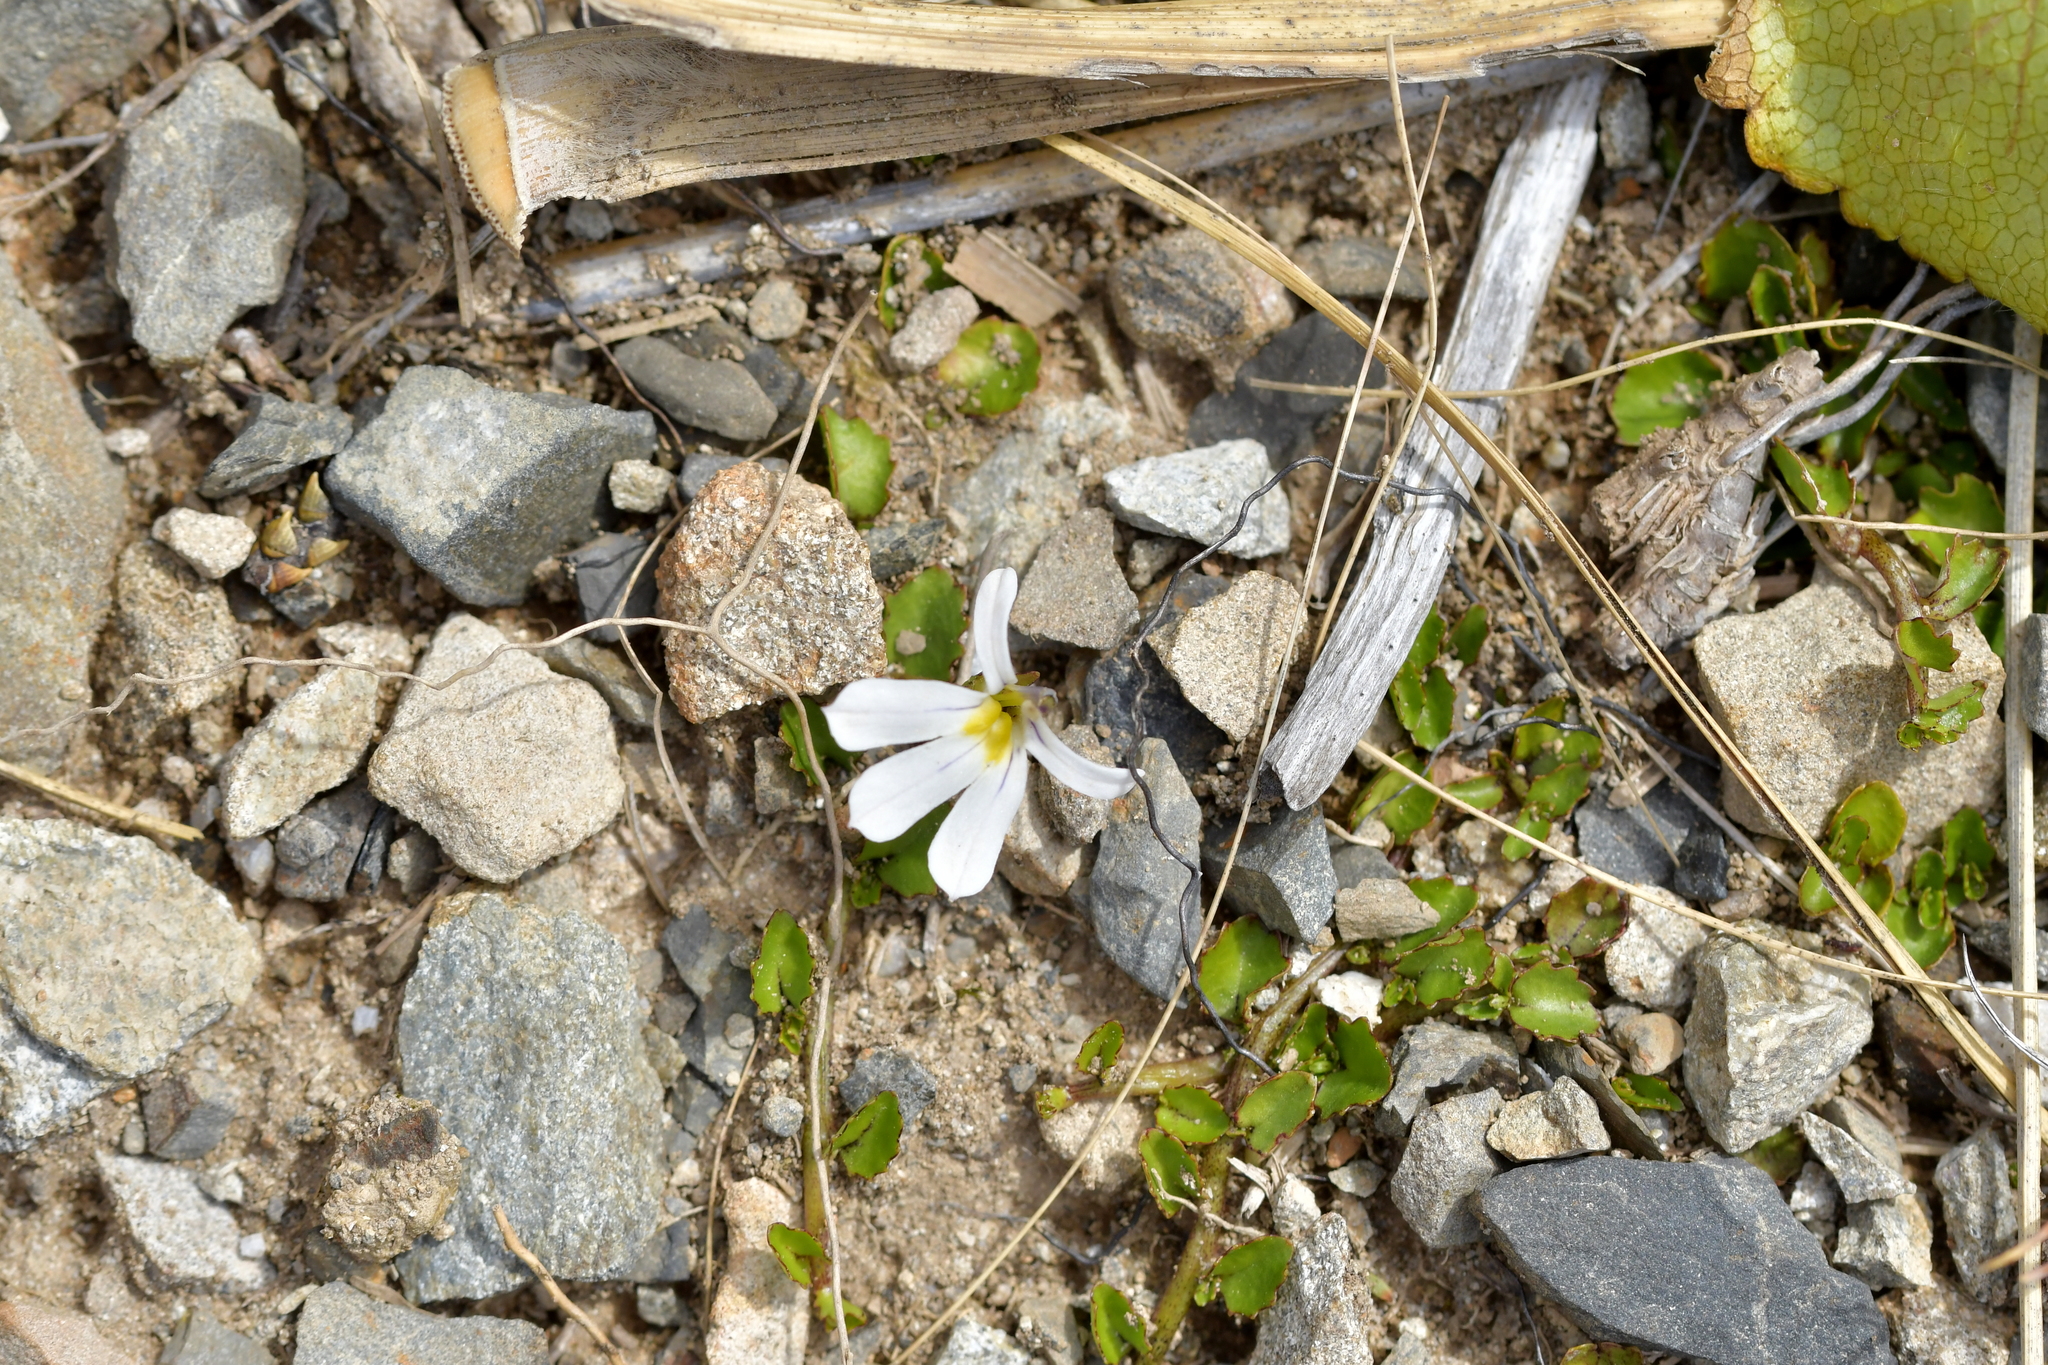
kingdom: Plantae
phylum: Tracheophyta
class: Magnoliopsida
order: Asterales
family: Campanulaceae
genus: Lobelia
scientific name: Lobelia angulata
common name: Lawn lobelia
